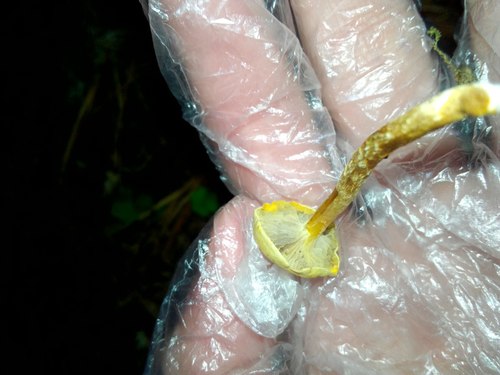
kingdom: Fungi
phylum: Basidiomycota
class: Agaricomycetes
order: Agaricales
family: Strophariaceae
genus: Hypholoma
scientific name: Hypholoma radicosum
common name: Rooting brownie
